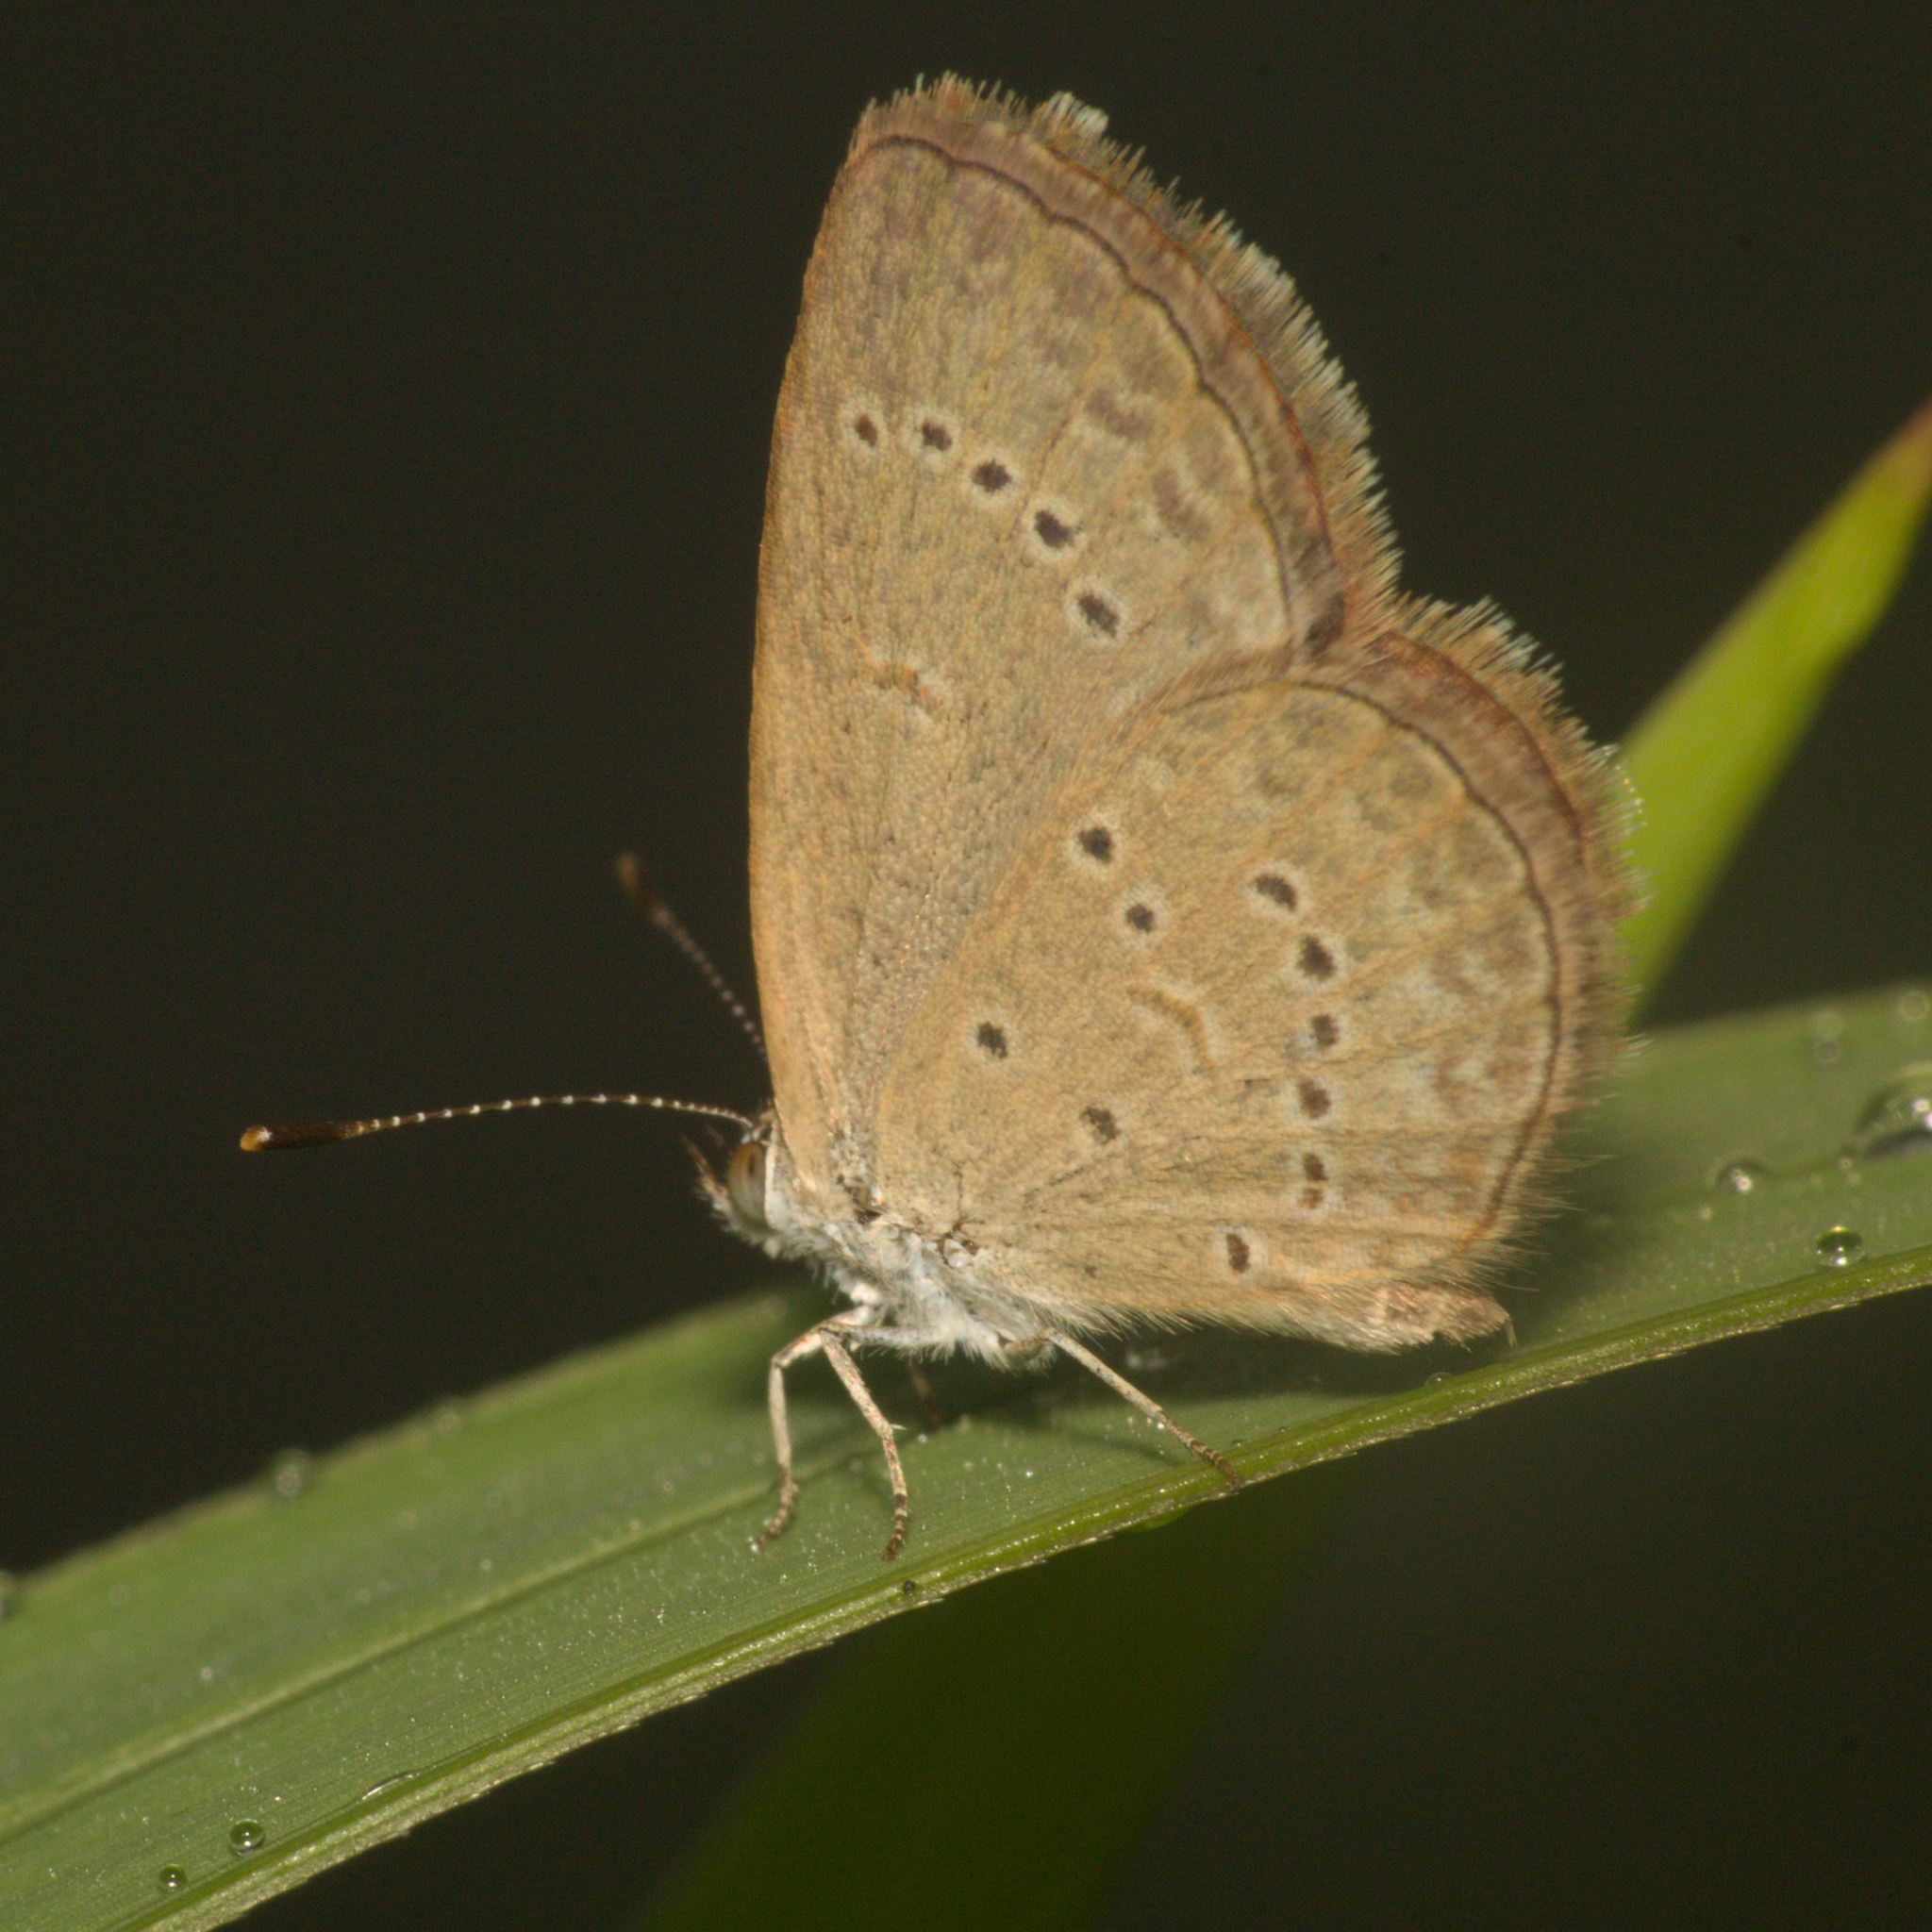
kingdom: Animalia
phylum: Arthropoda
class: Insecta
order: Lepidoptera
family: Lycaenidae
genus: Zizina
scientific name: Zizina otis
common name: Lesser grass blue
